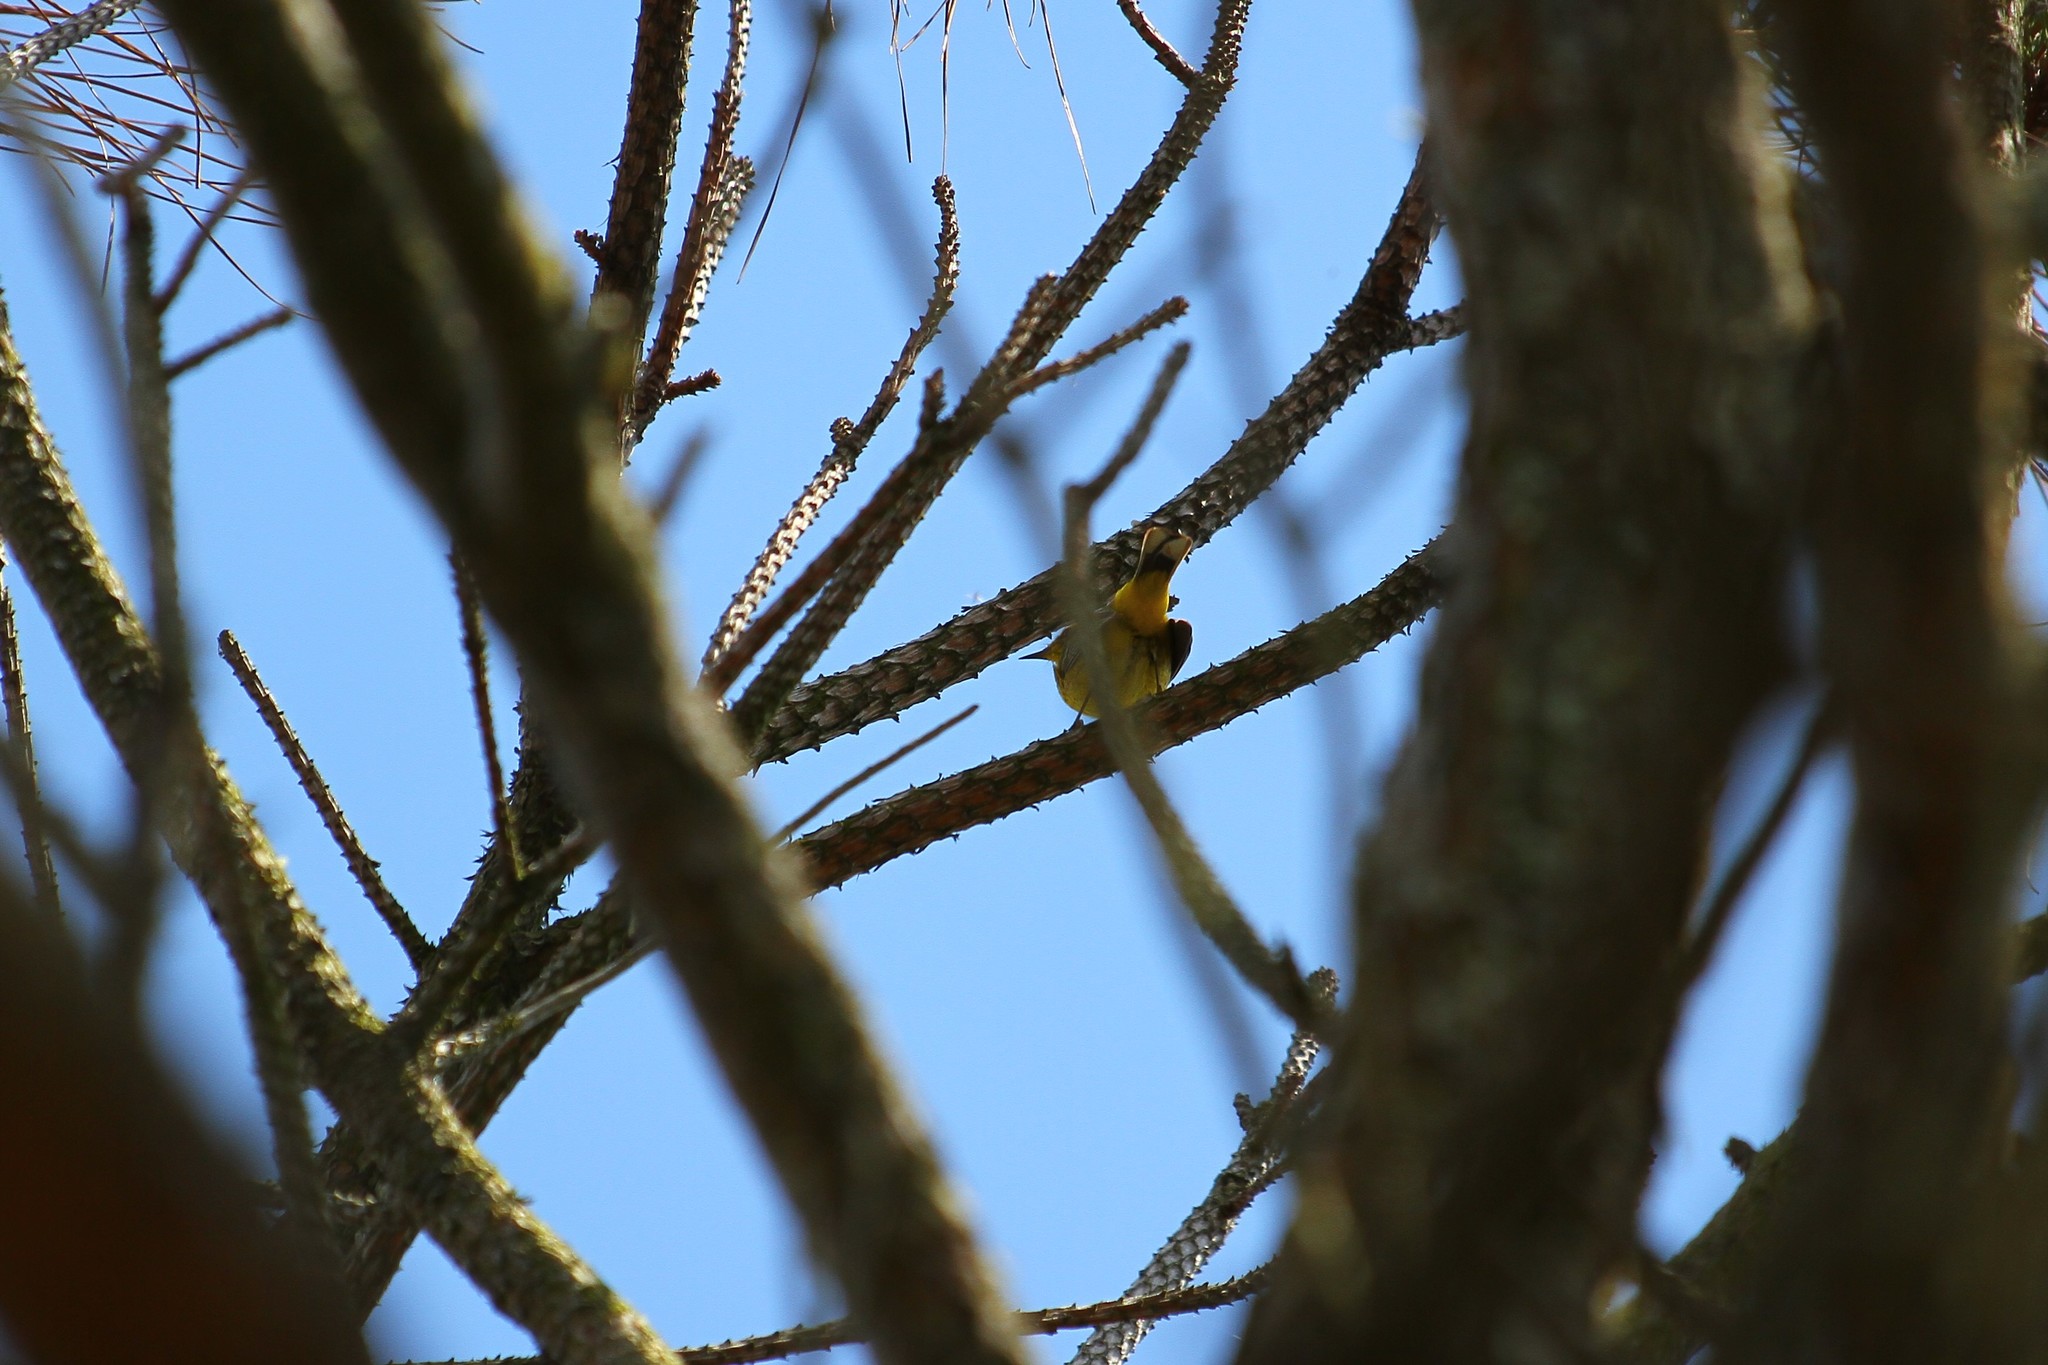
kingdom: Animalia
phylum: Chordata
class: Aves
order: Passeriformes
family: Parulidae
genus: Setophaga
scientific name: Setophaga palmarum
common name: Palm warbler
